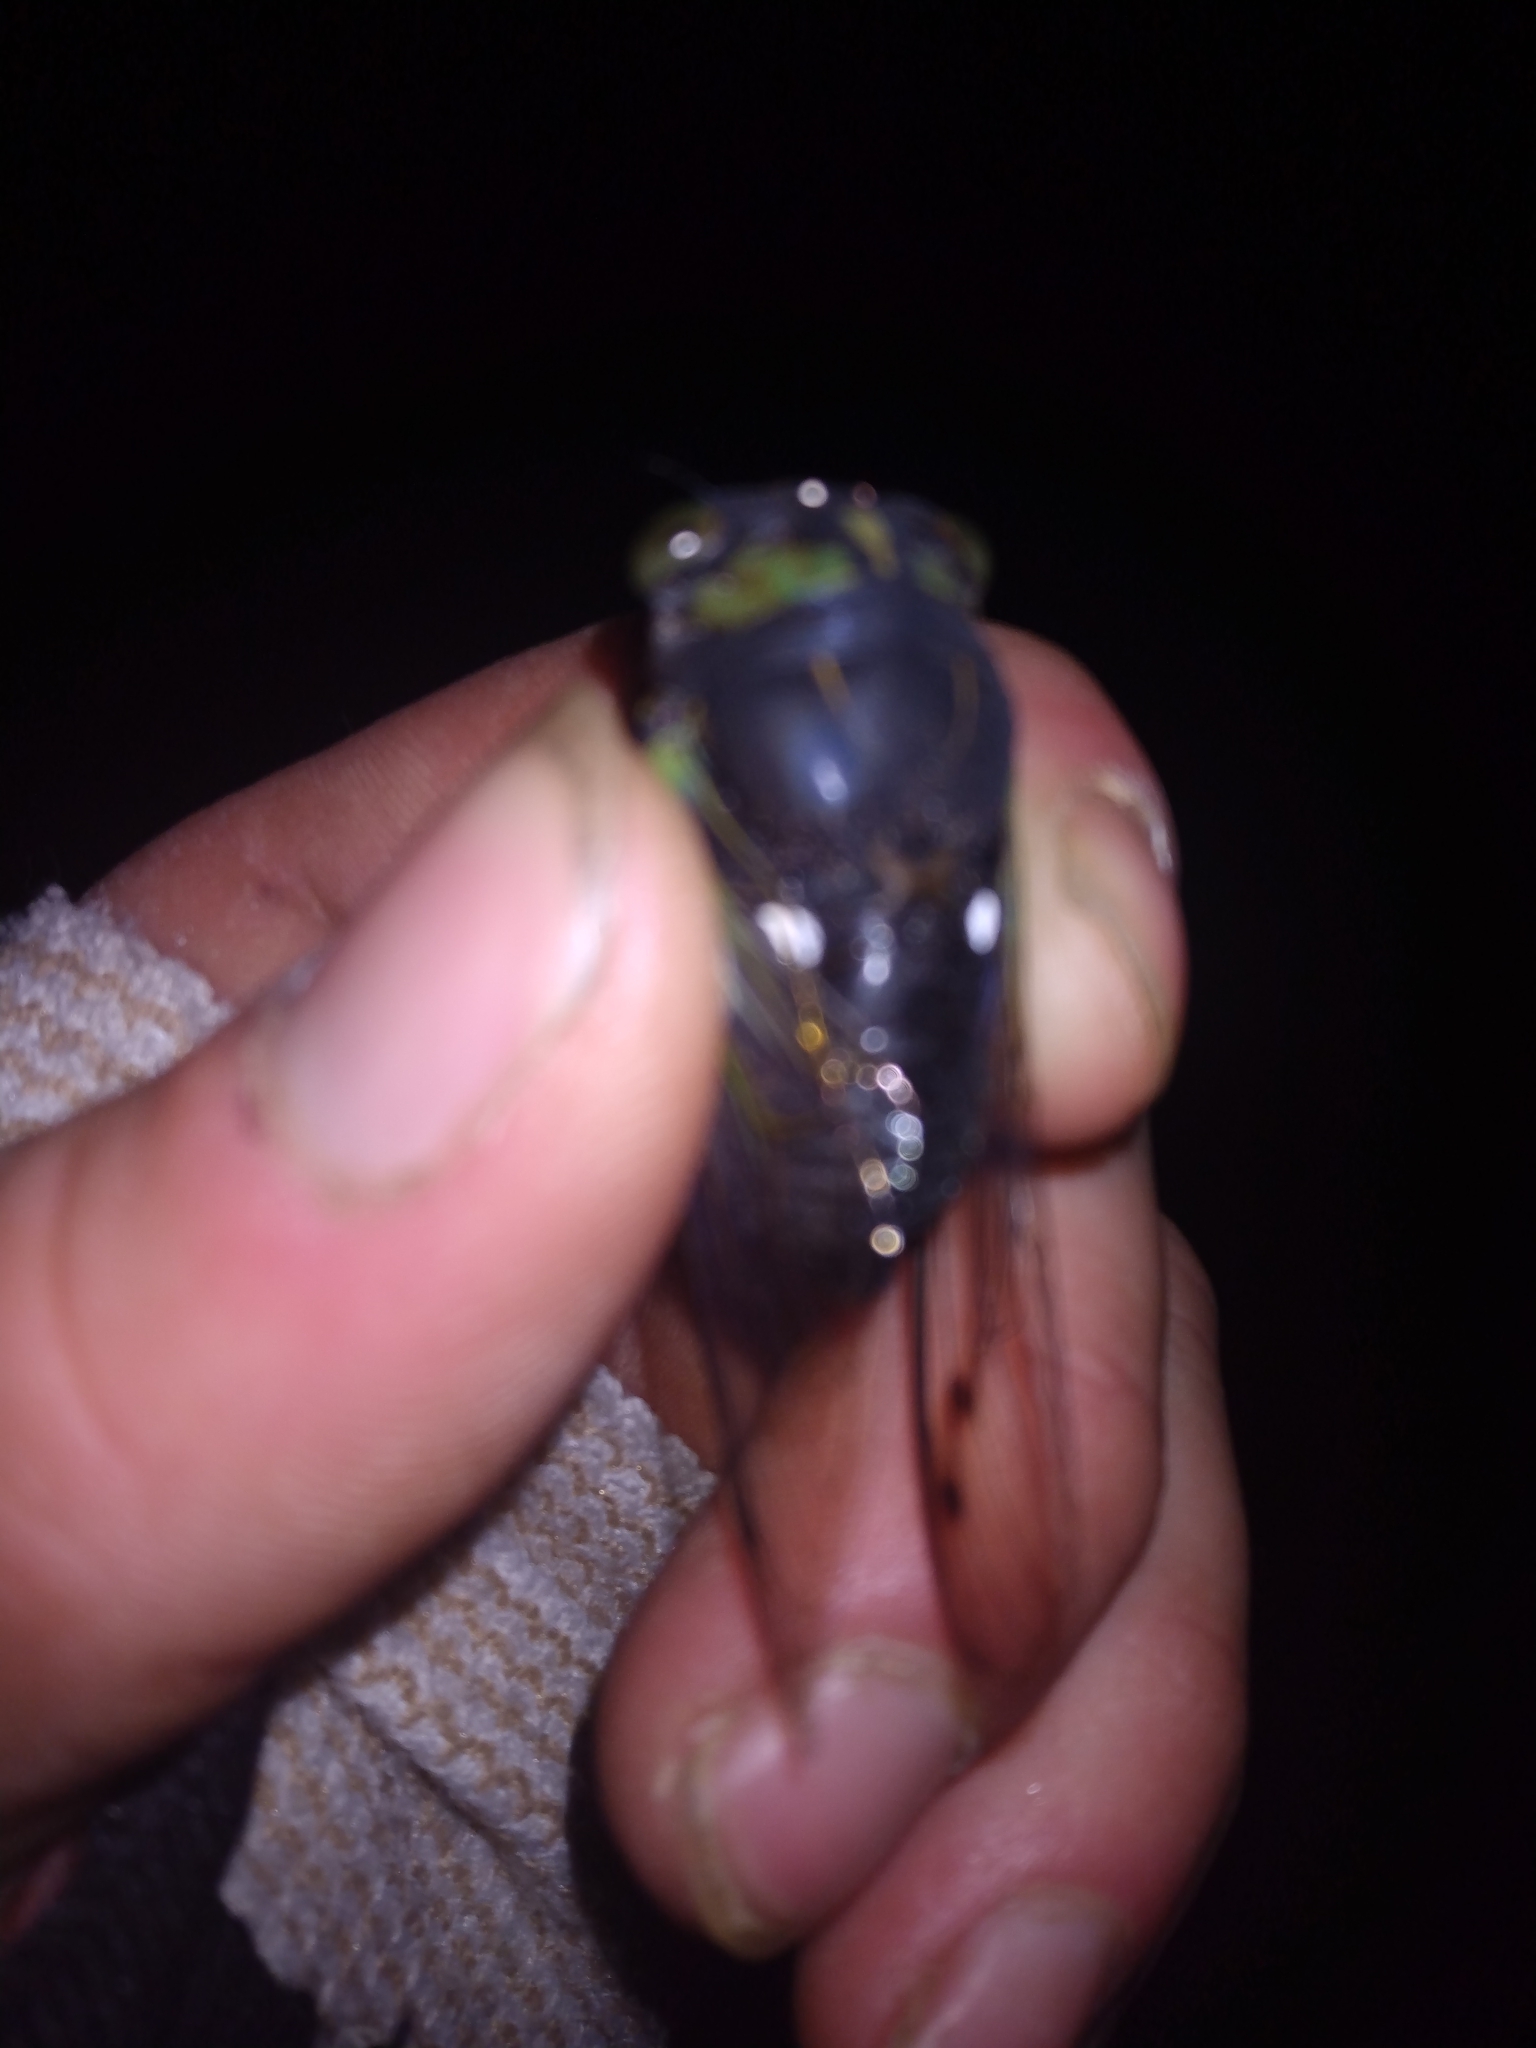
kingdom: Animalia
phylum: Arthropoda
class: Insecta
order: Hemiptera
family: Cicadidae
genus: Neotibicen
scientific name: Neotibicen tibicen
